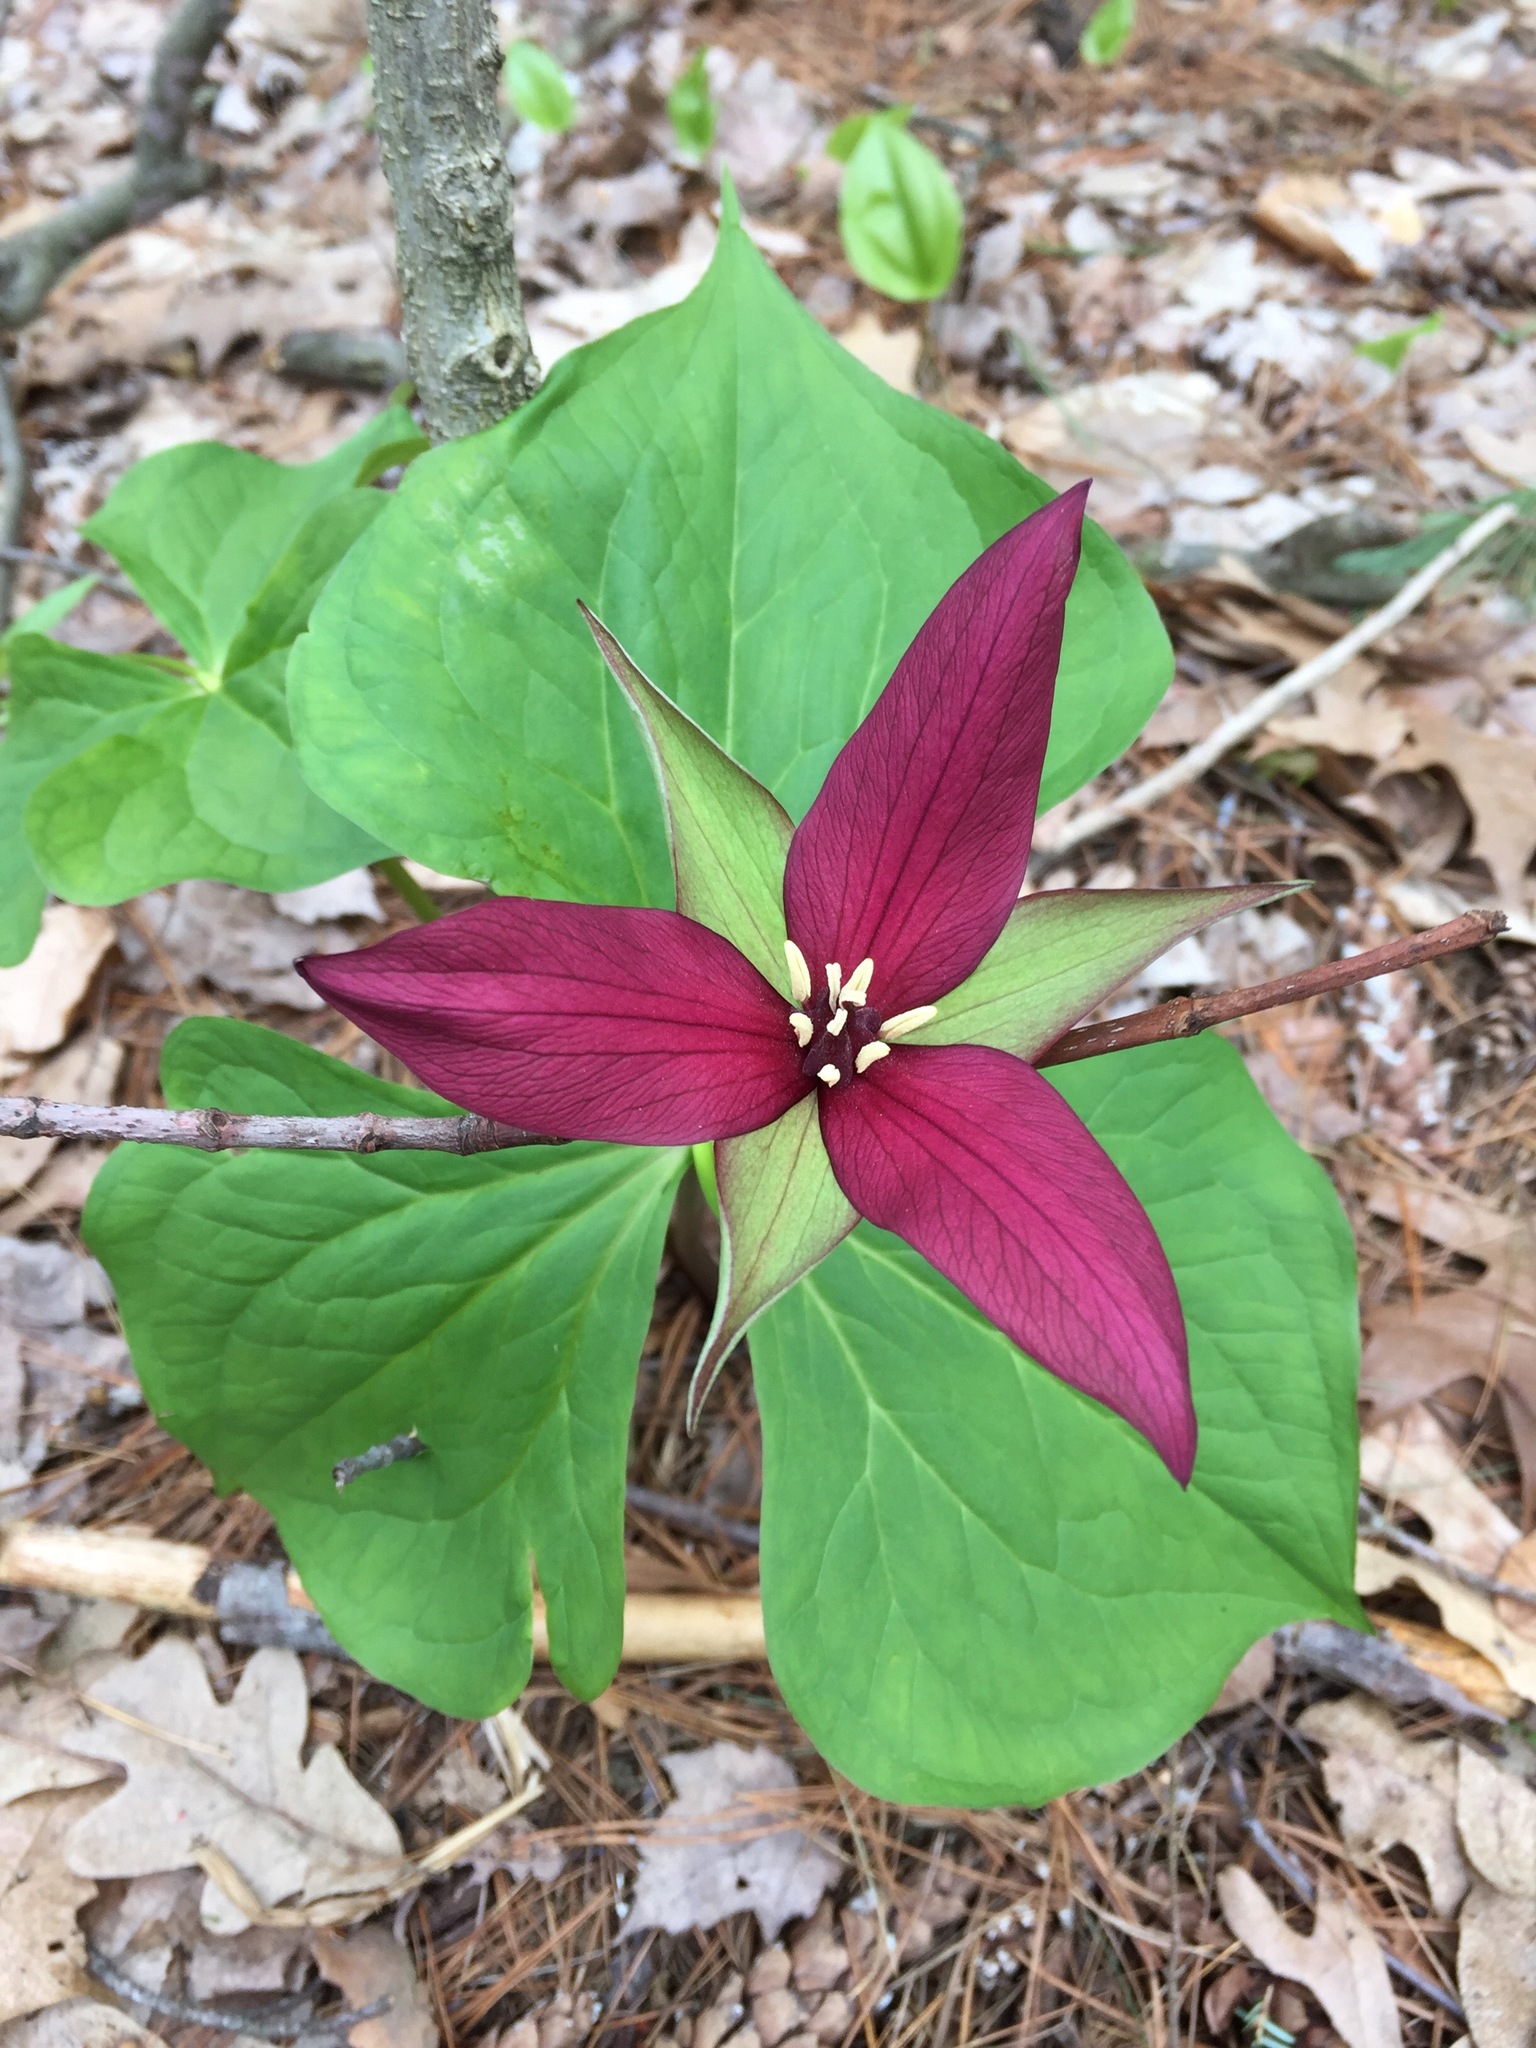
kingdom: Plantae
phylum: Tracheophyta
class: Liliopsida
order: Liliales
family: Melanthiaceae
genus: Trillium
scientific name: Trillium erectum
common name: Purple trillium
